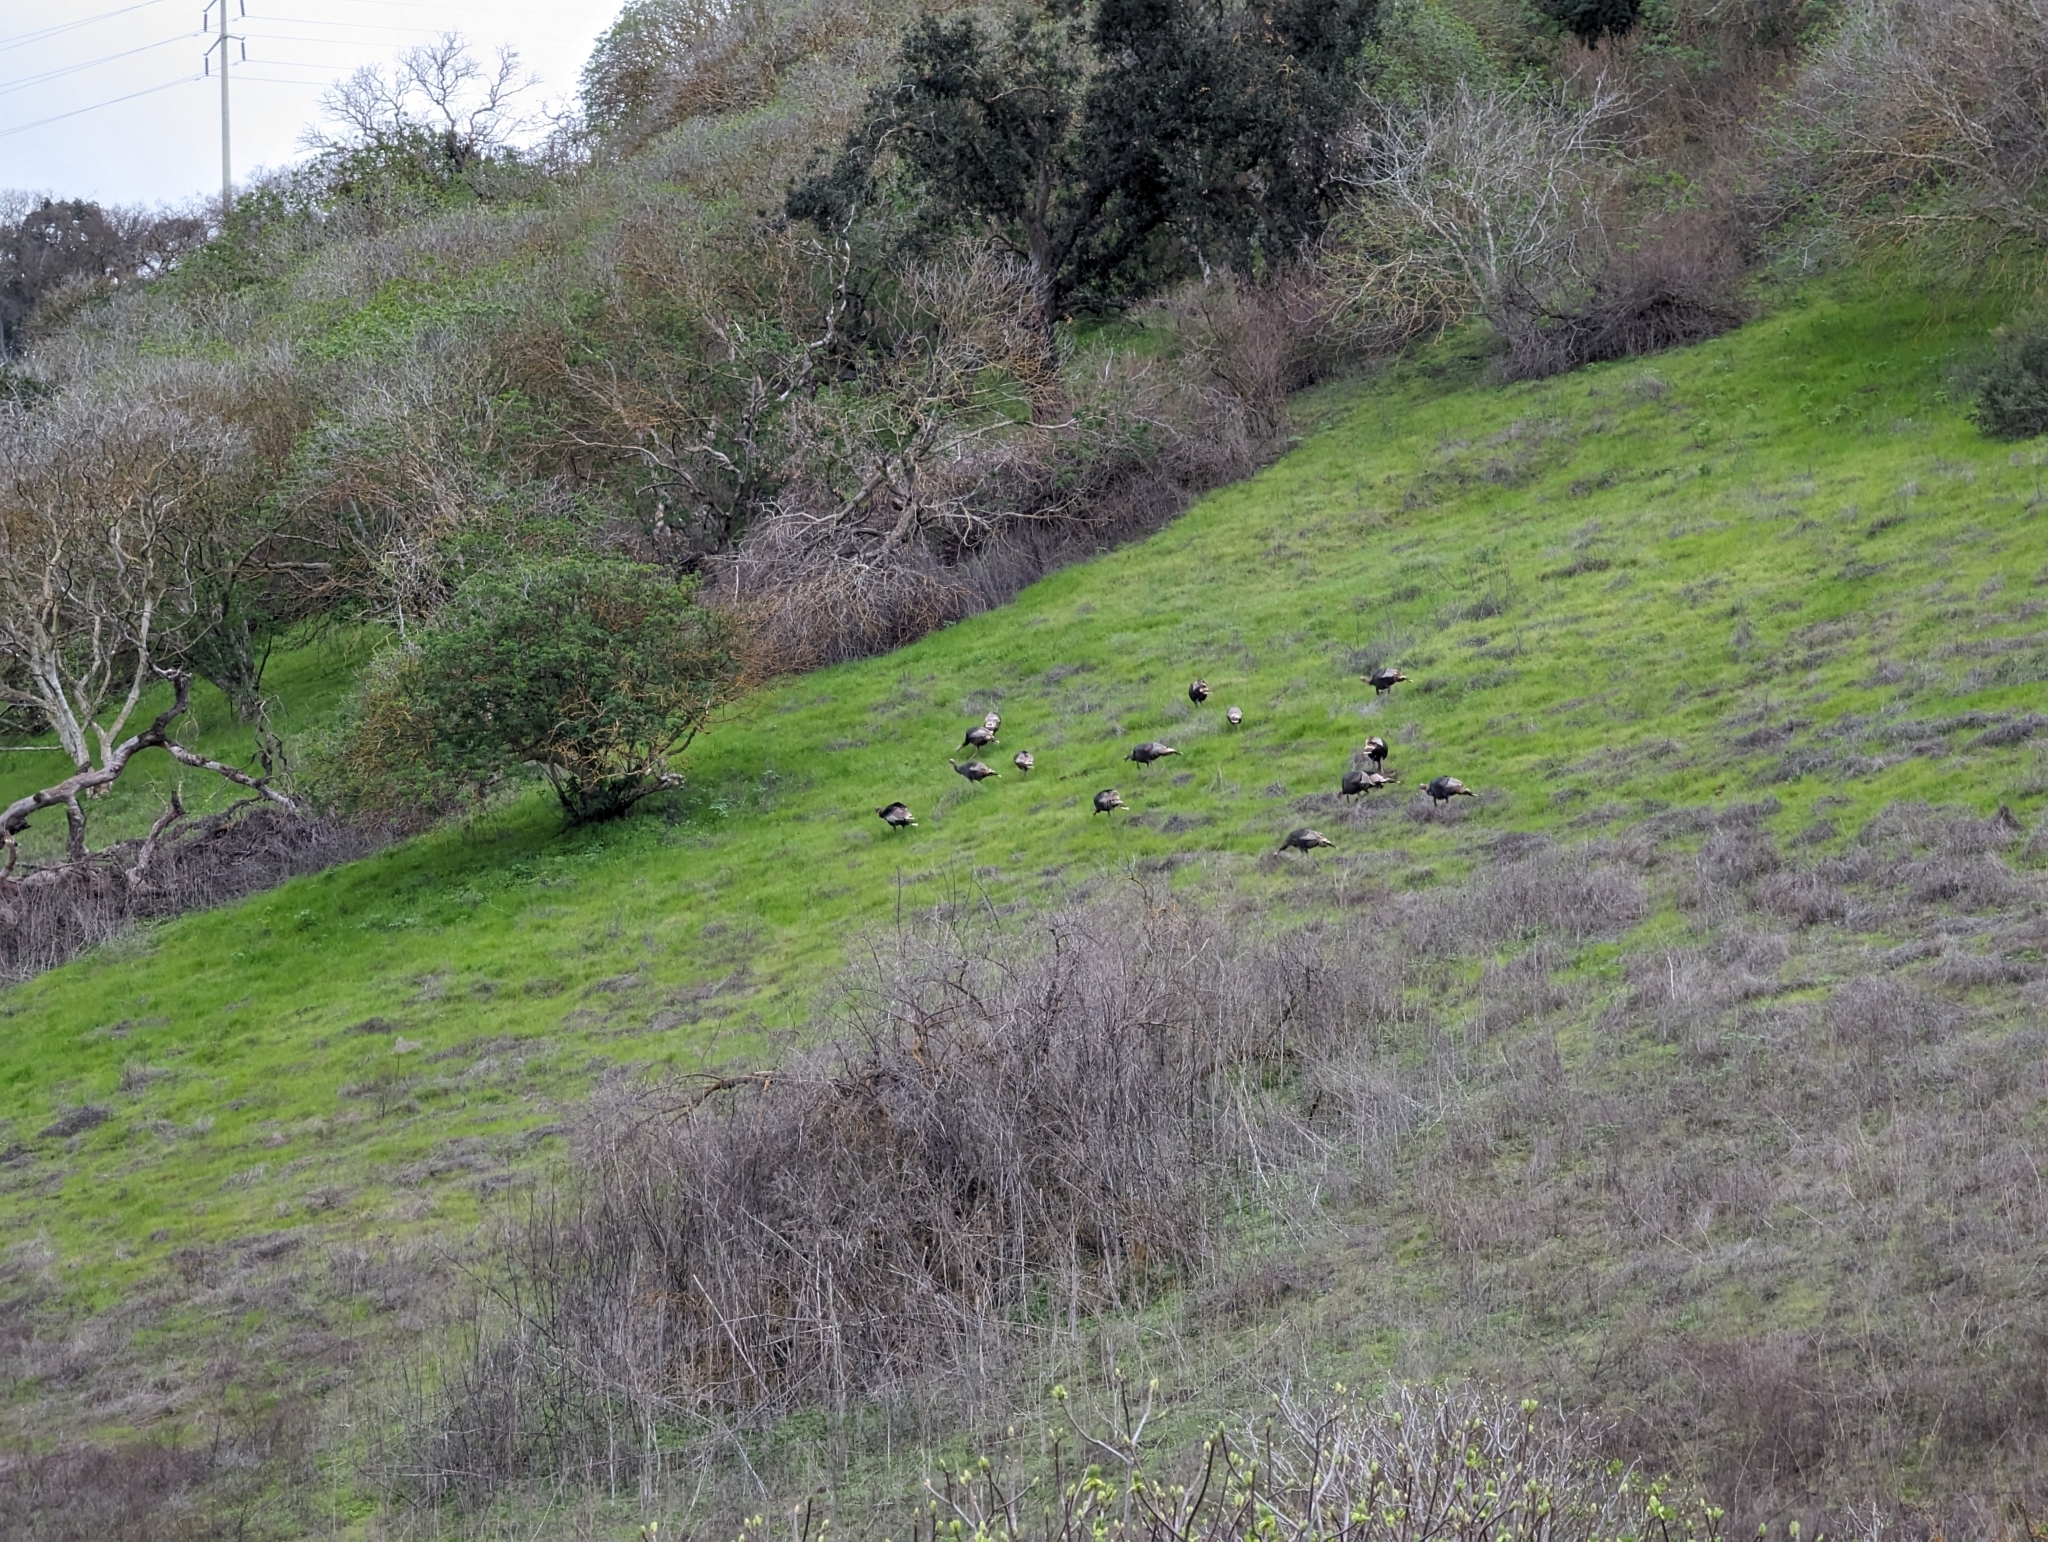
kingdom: Animalia
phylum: Chordata
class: Aves
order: Galliformes
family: Phasianidae
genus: Meleagris
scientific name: Meleagris gallopavo
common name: Wild turkey
